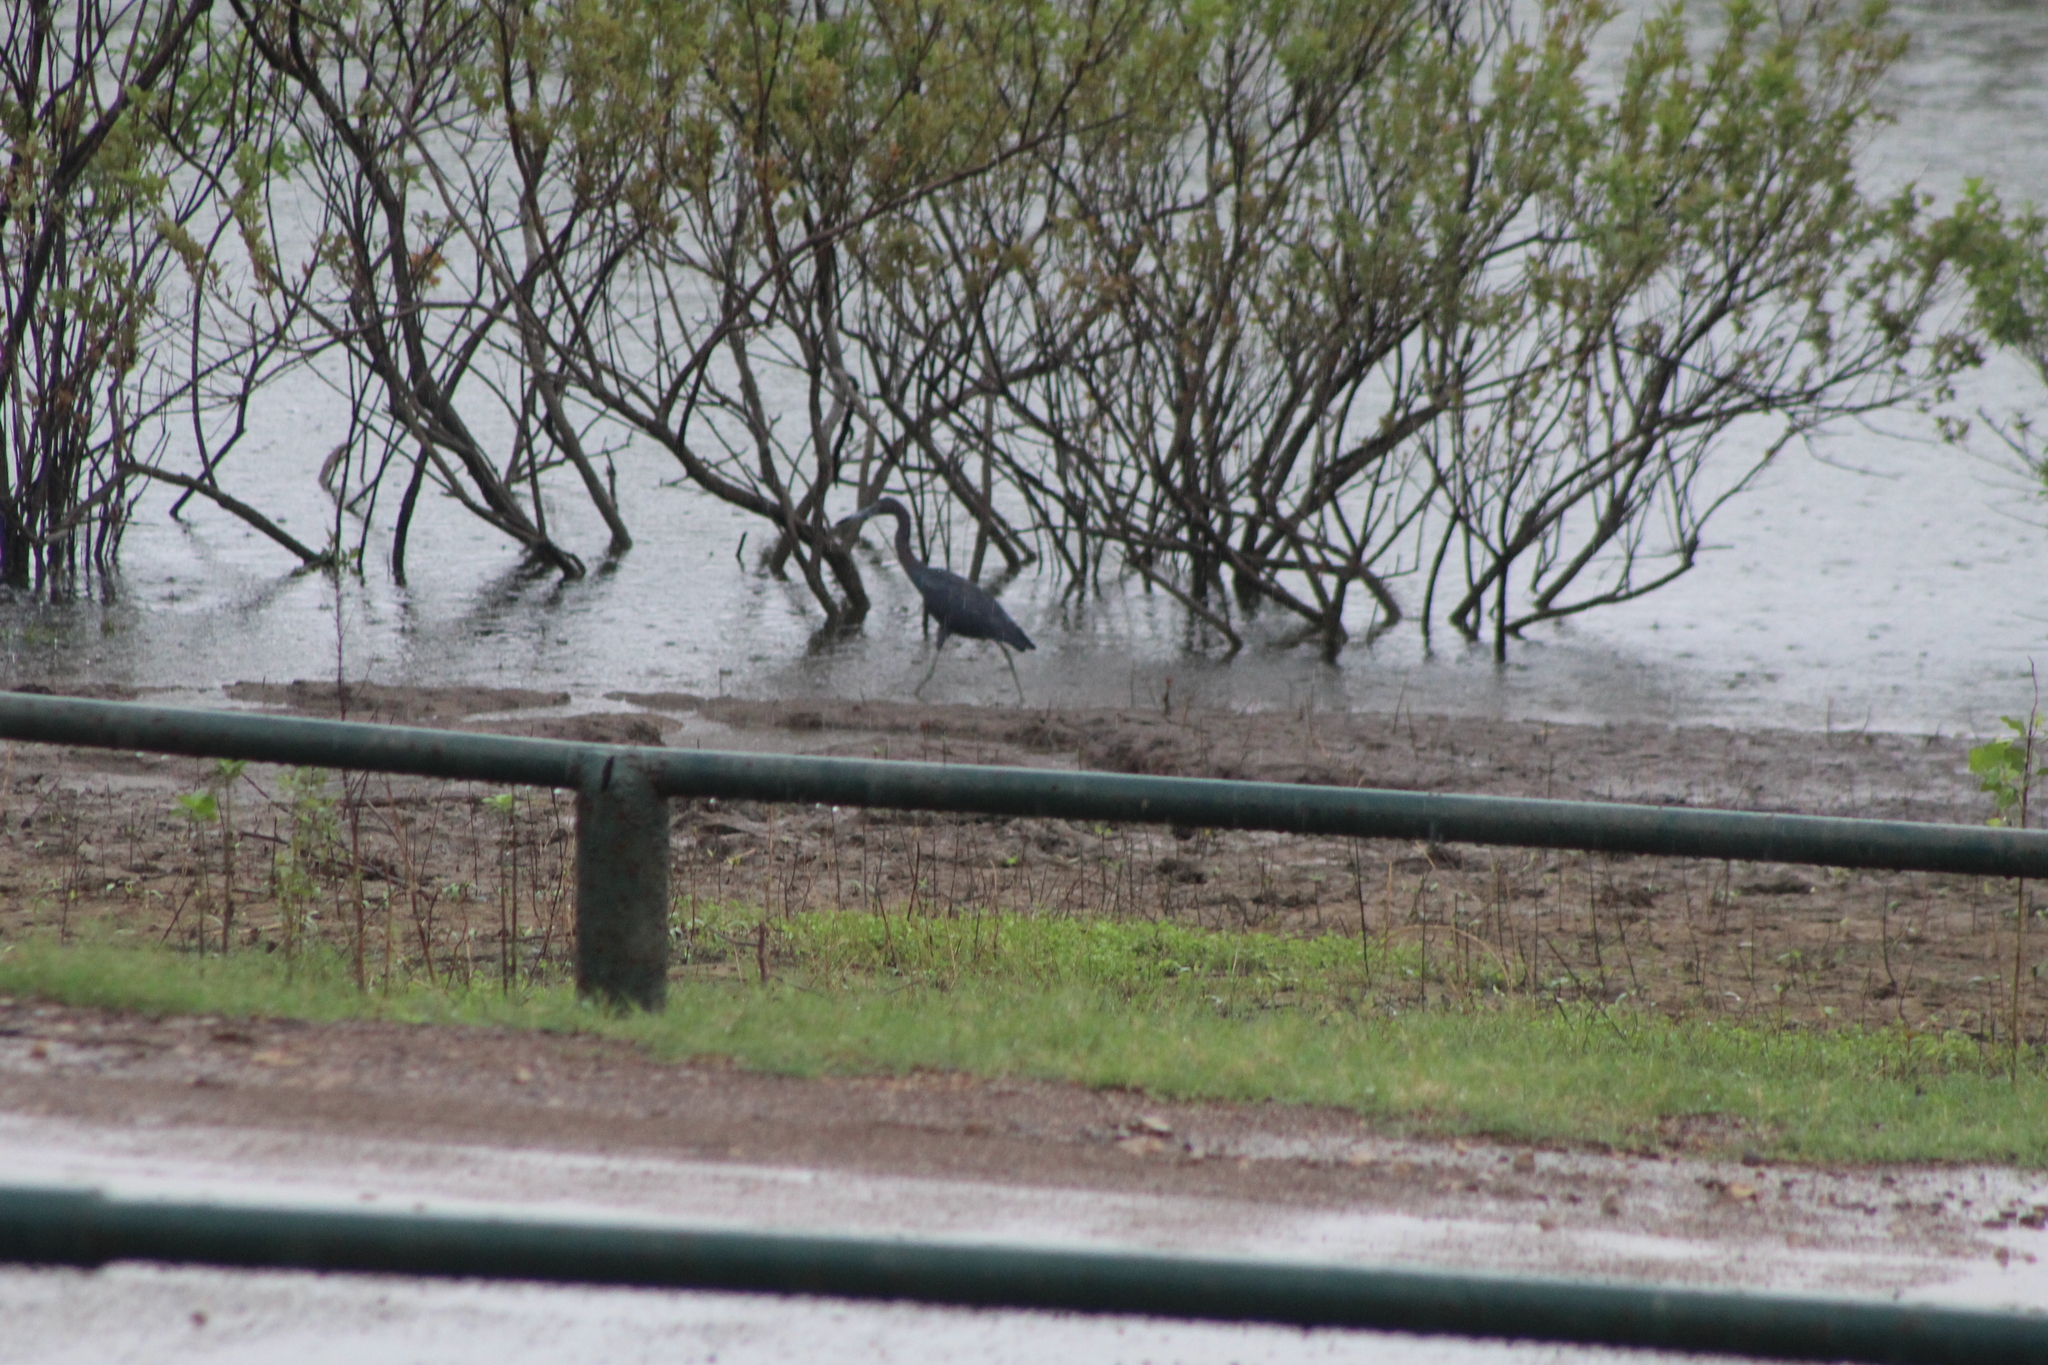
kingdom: Animalia
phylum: Chordata
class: Aves
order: Pelecaniformes
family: Ardeidae
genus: Egretta
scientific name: Egretta caerulea
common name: Little blue heron
